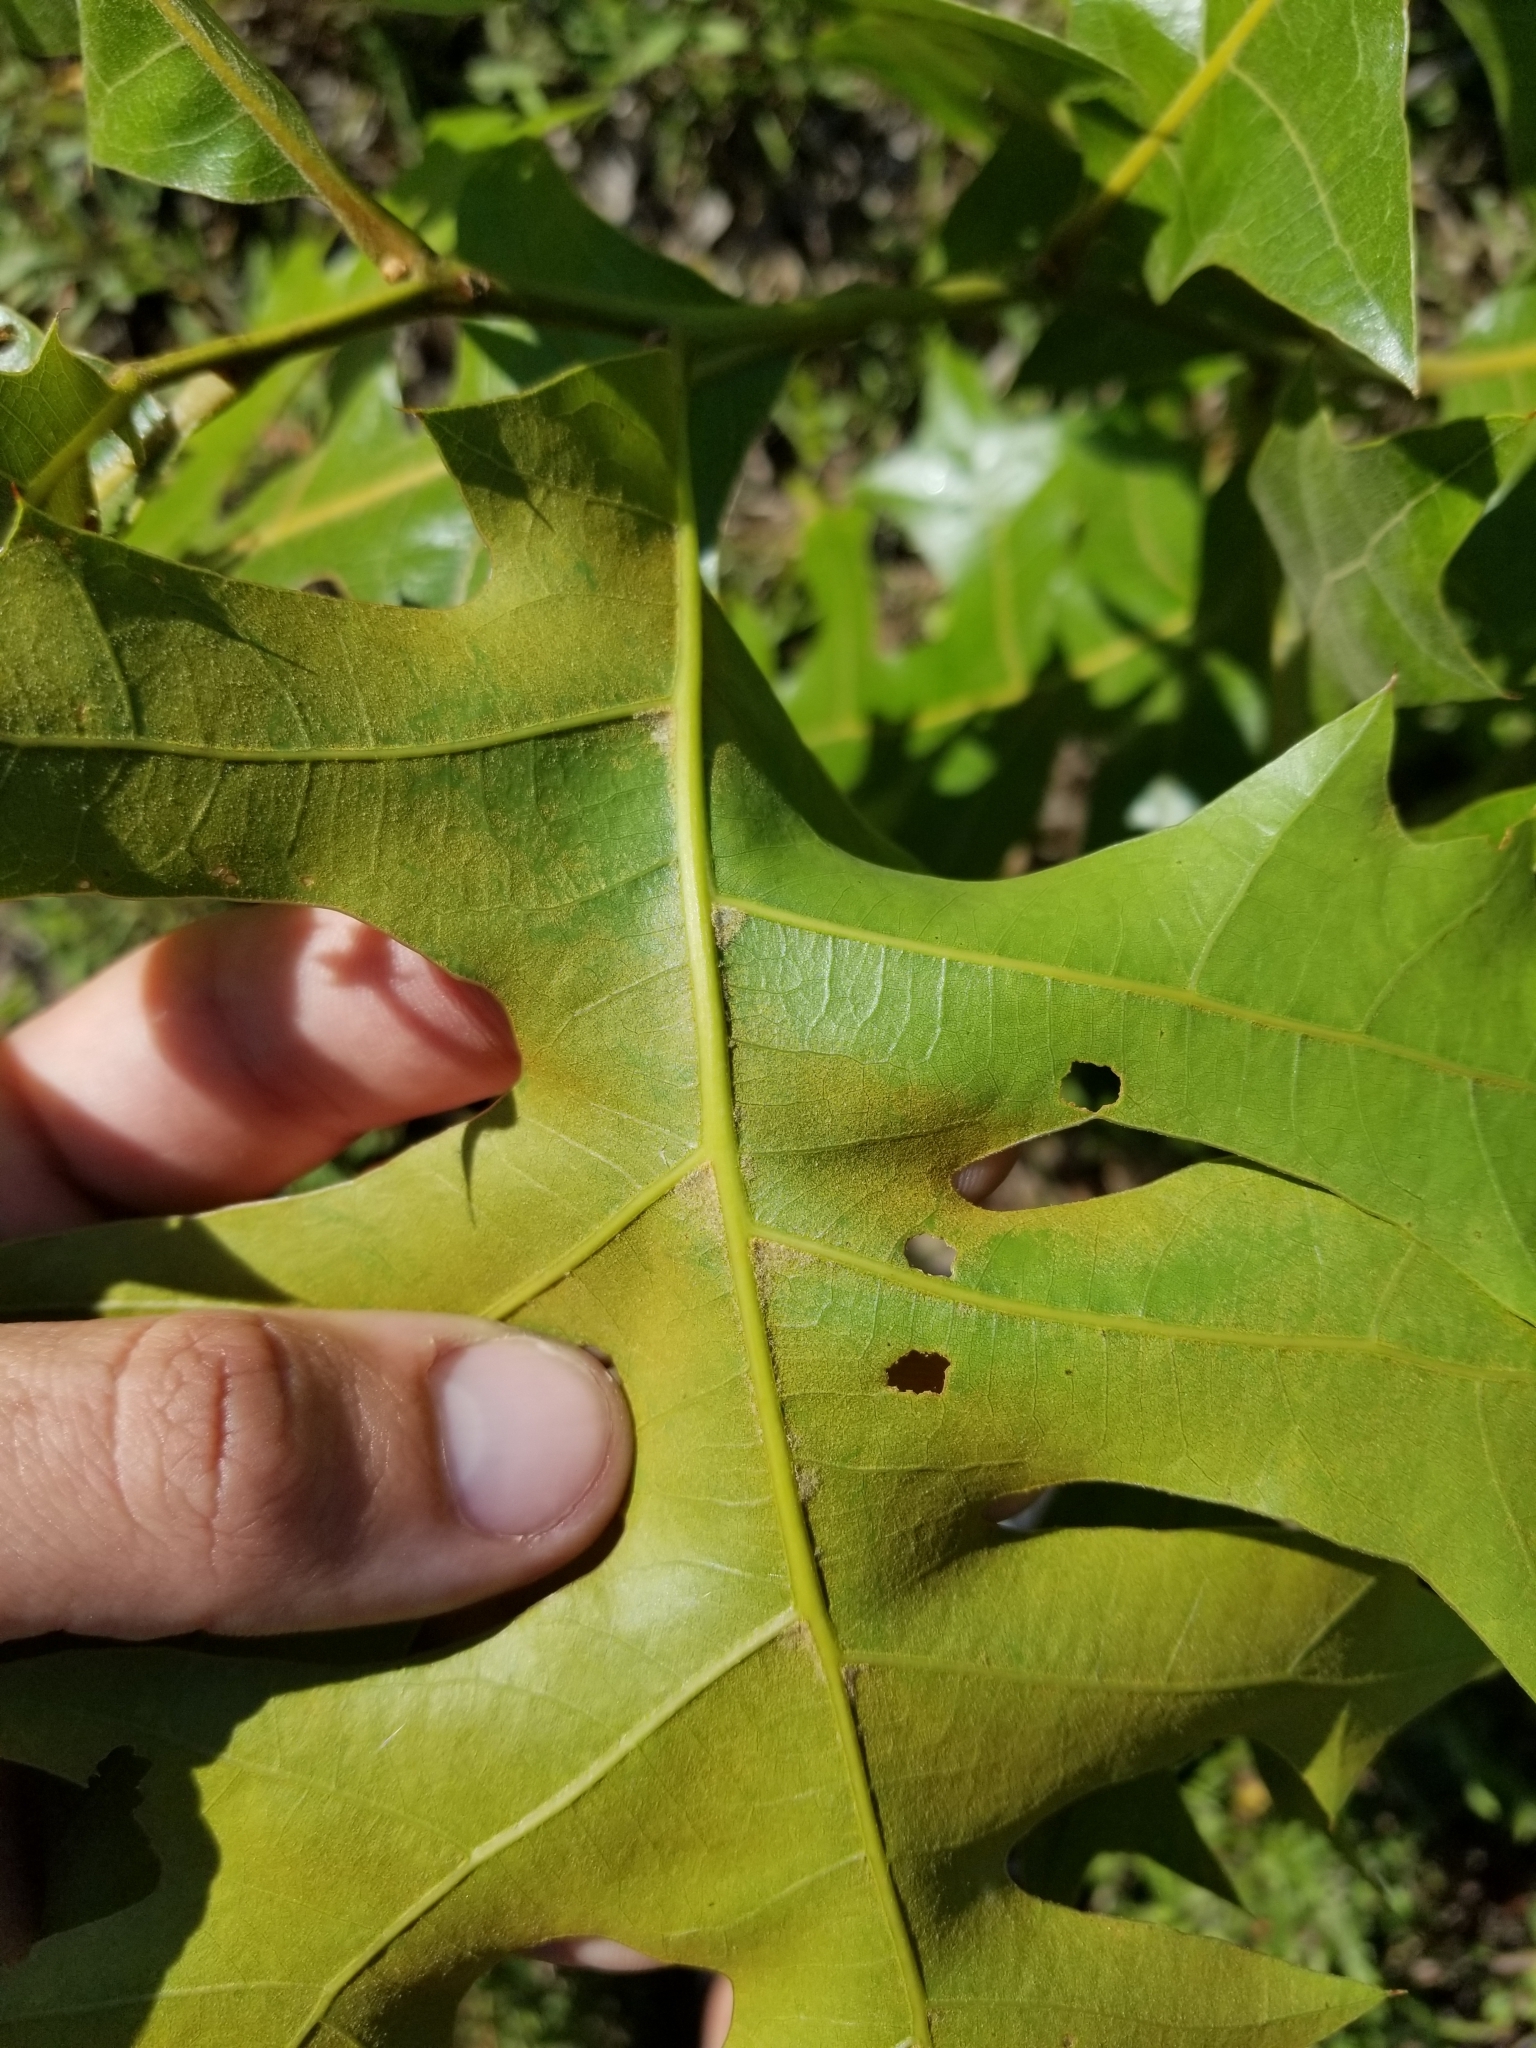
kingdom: Plantae
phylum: Tracheophyta
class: Magnoliopsida
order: Fagales
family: Fagaceae
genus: Quercus
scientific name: Quercus laevis
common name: Turkey oak
